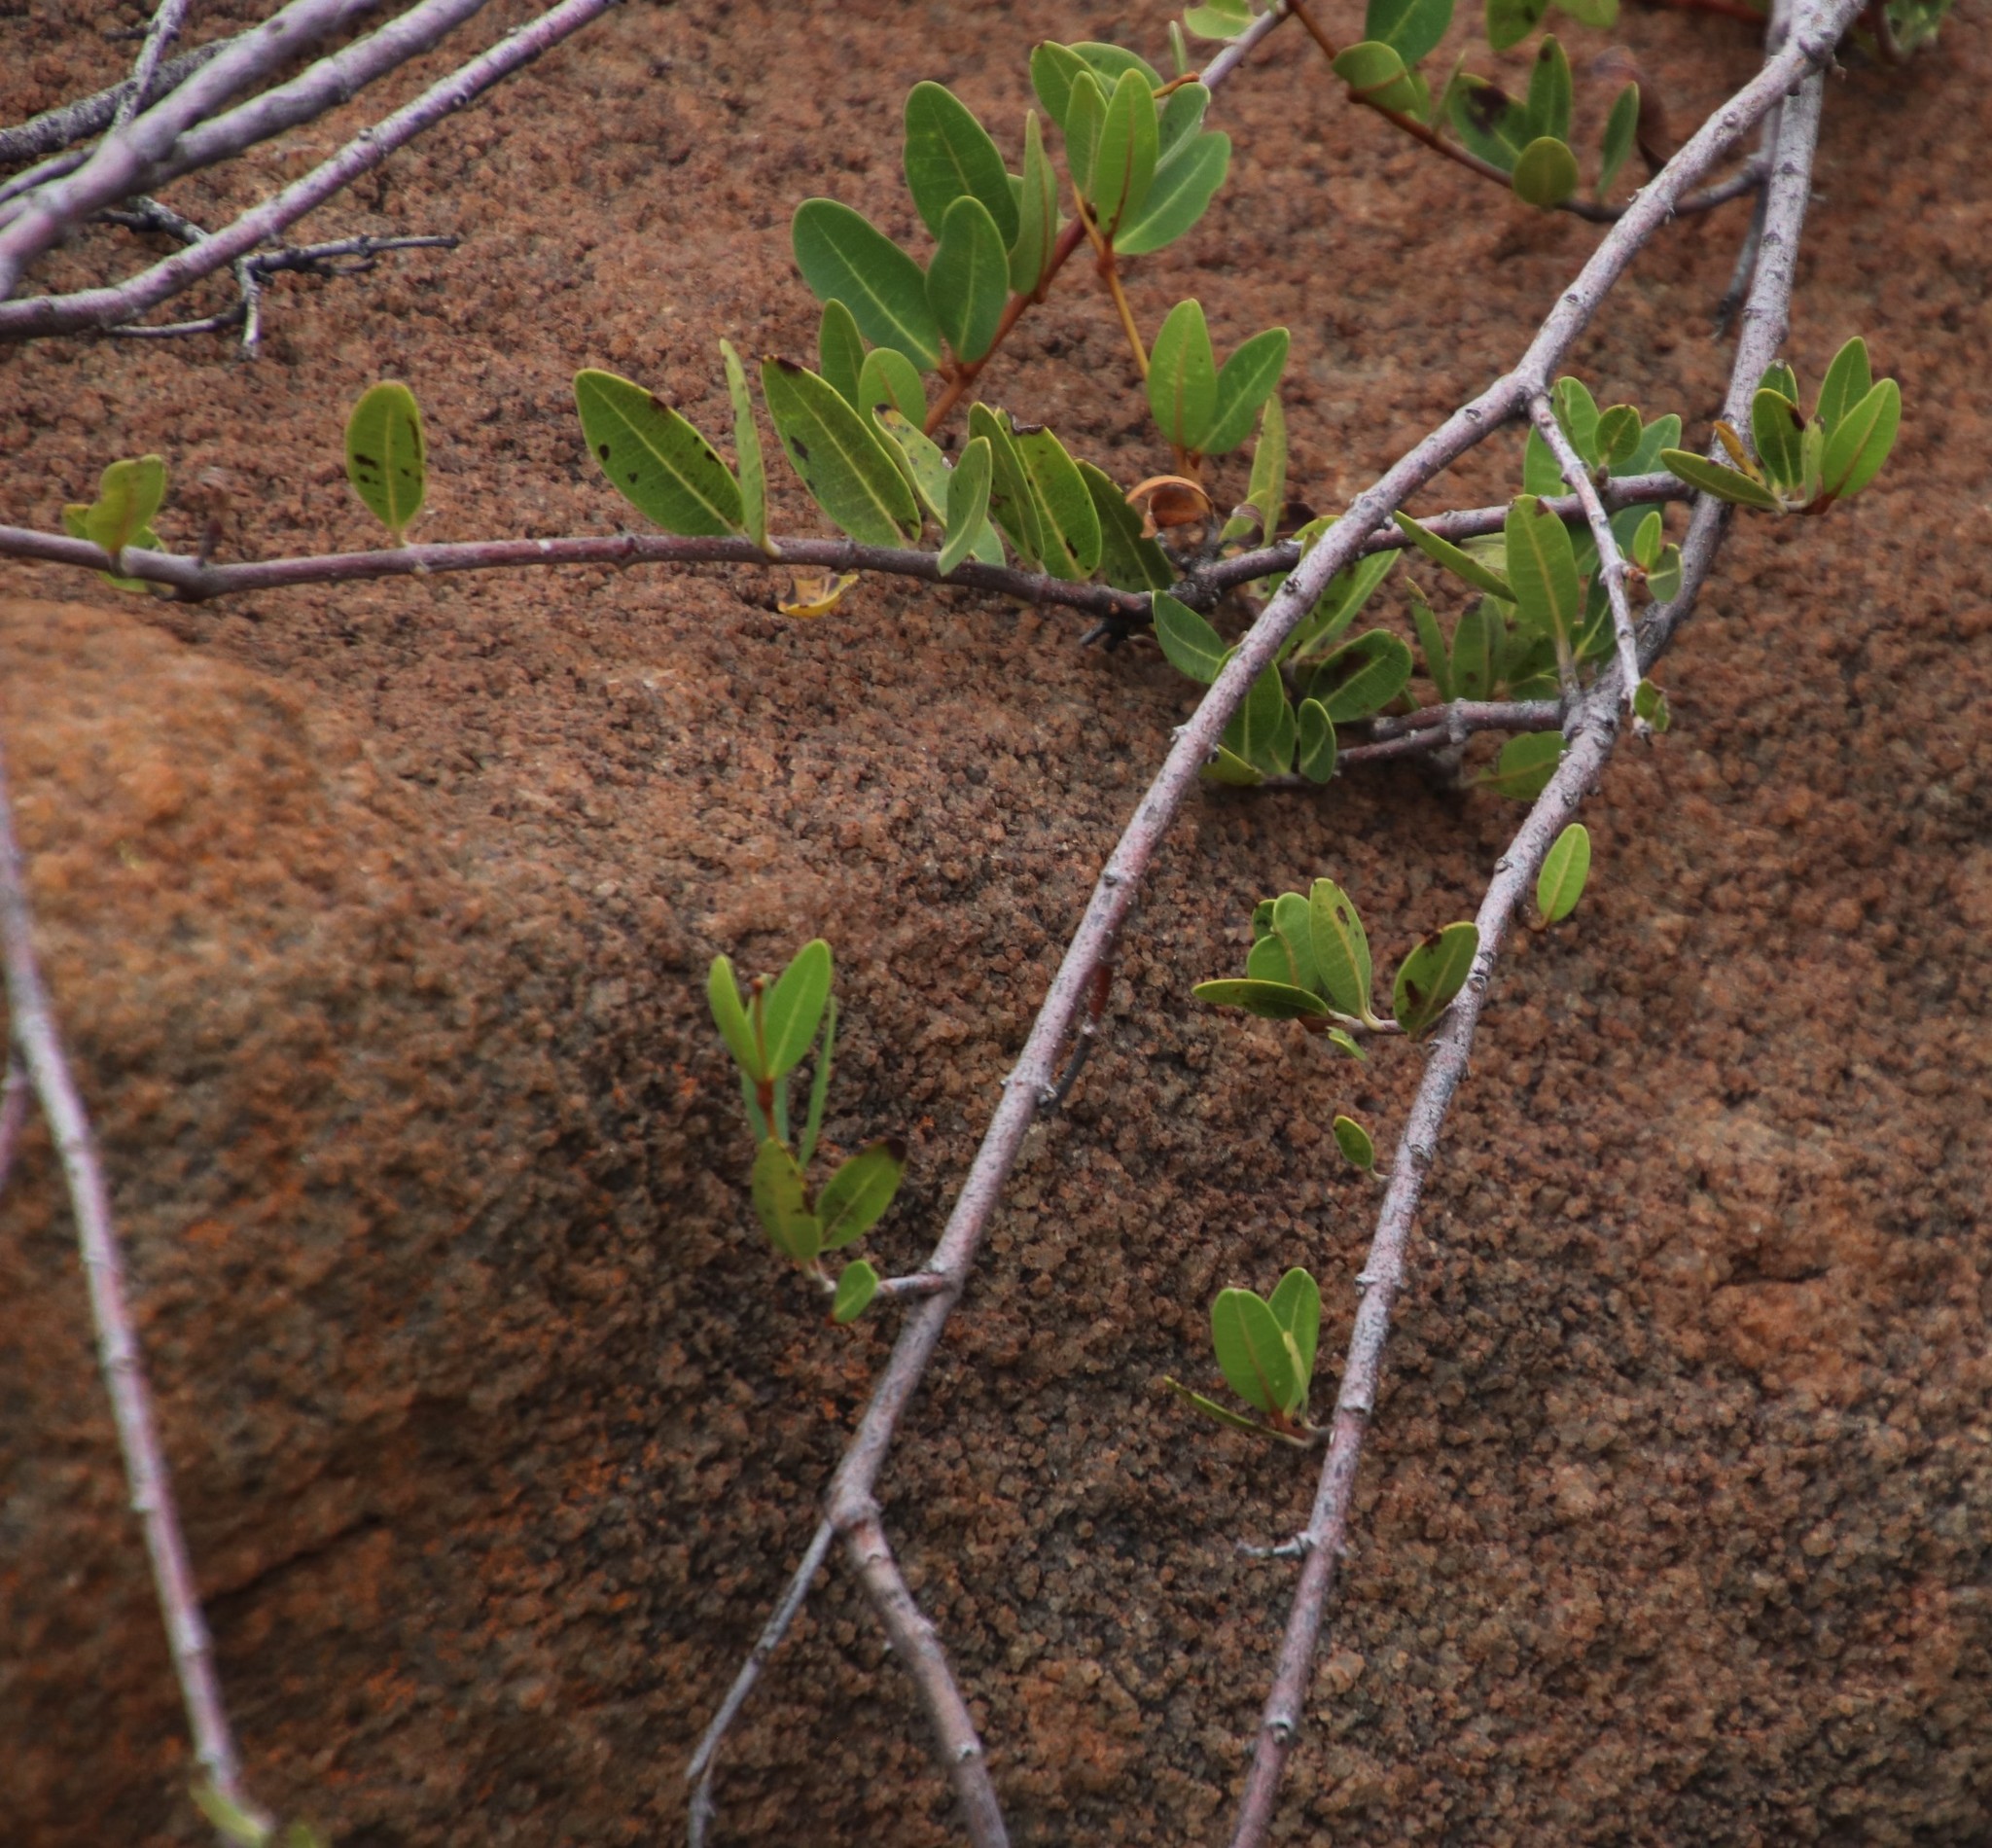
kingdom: Plantae
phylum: Tracheophyta
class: Magnoliopsida
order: Gentianales
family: Apocynaceae
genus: Ancylobothrys
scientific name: Ancylobothrys capensis
